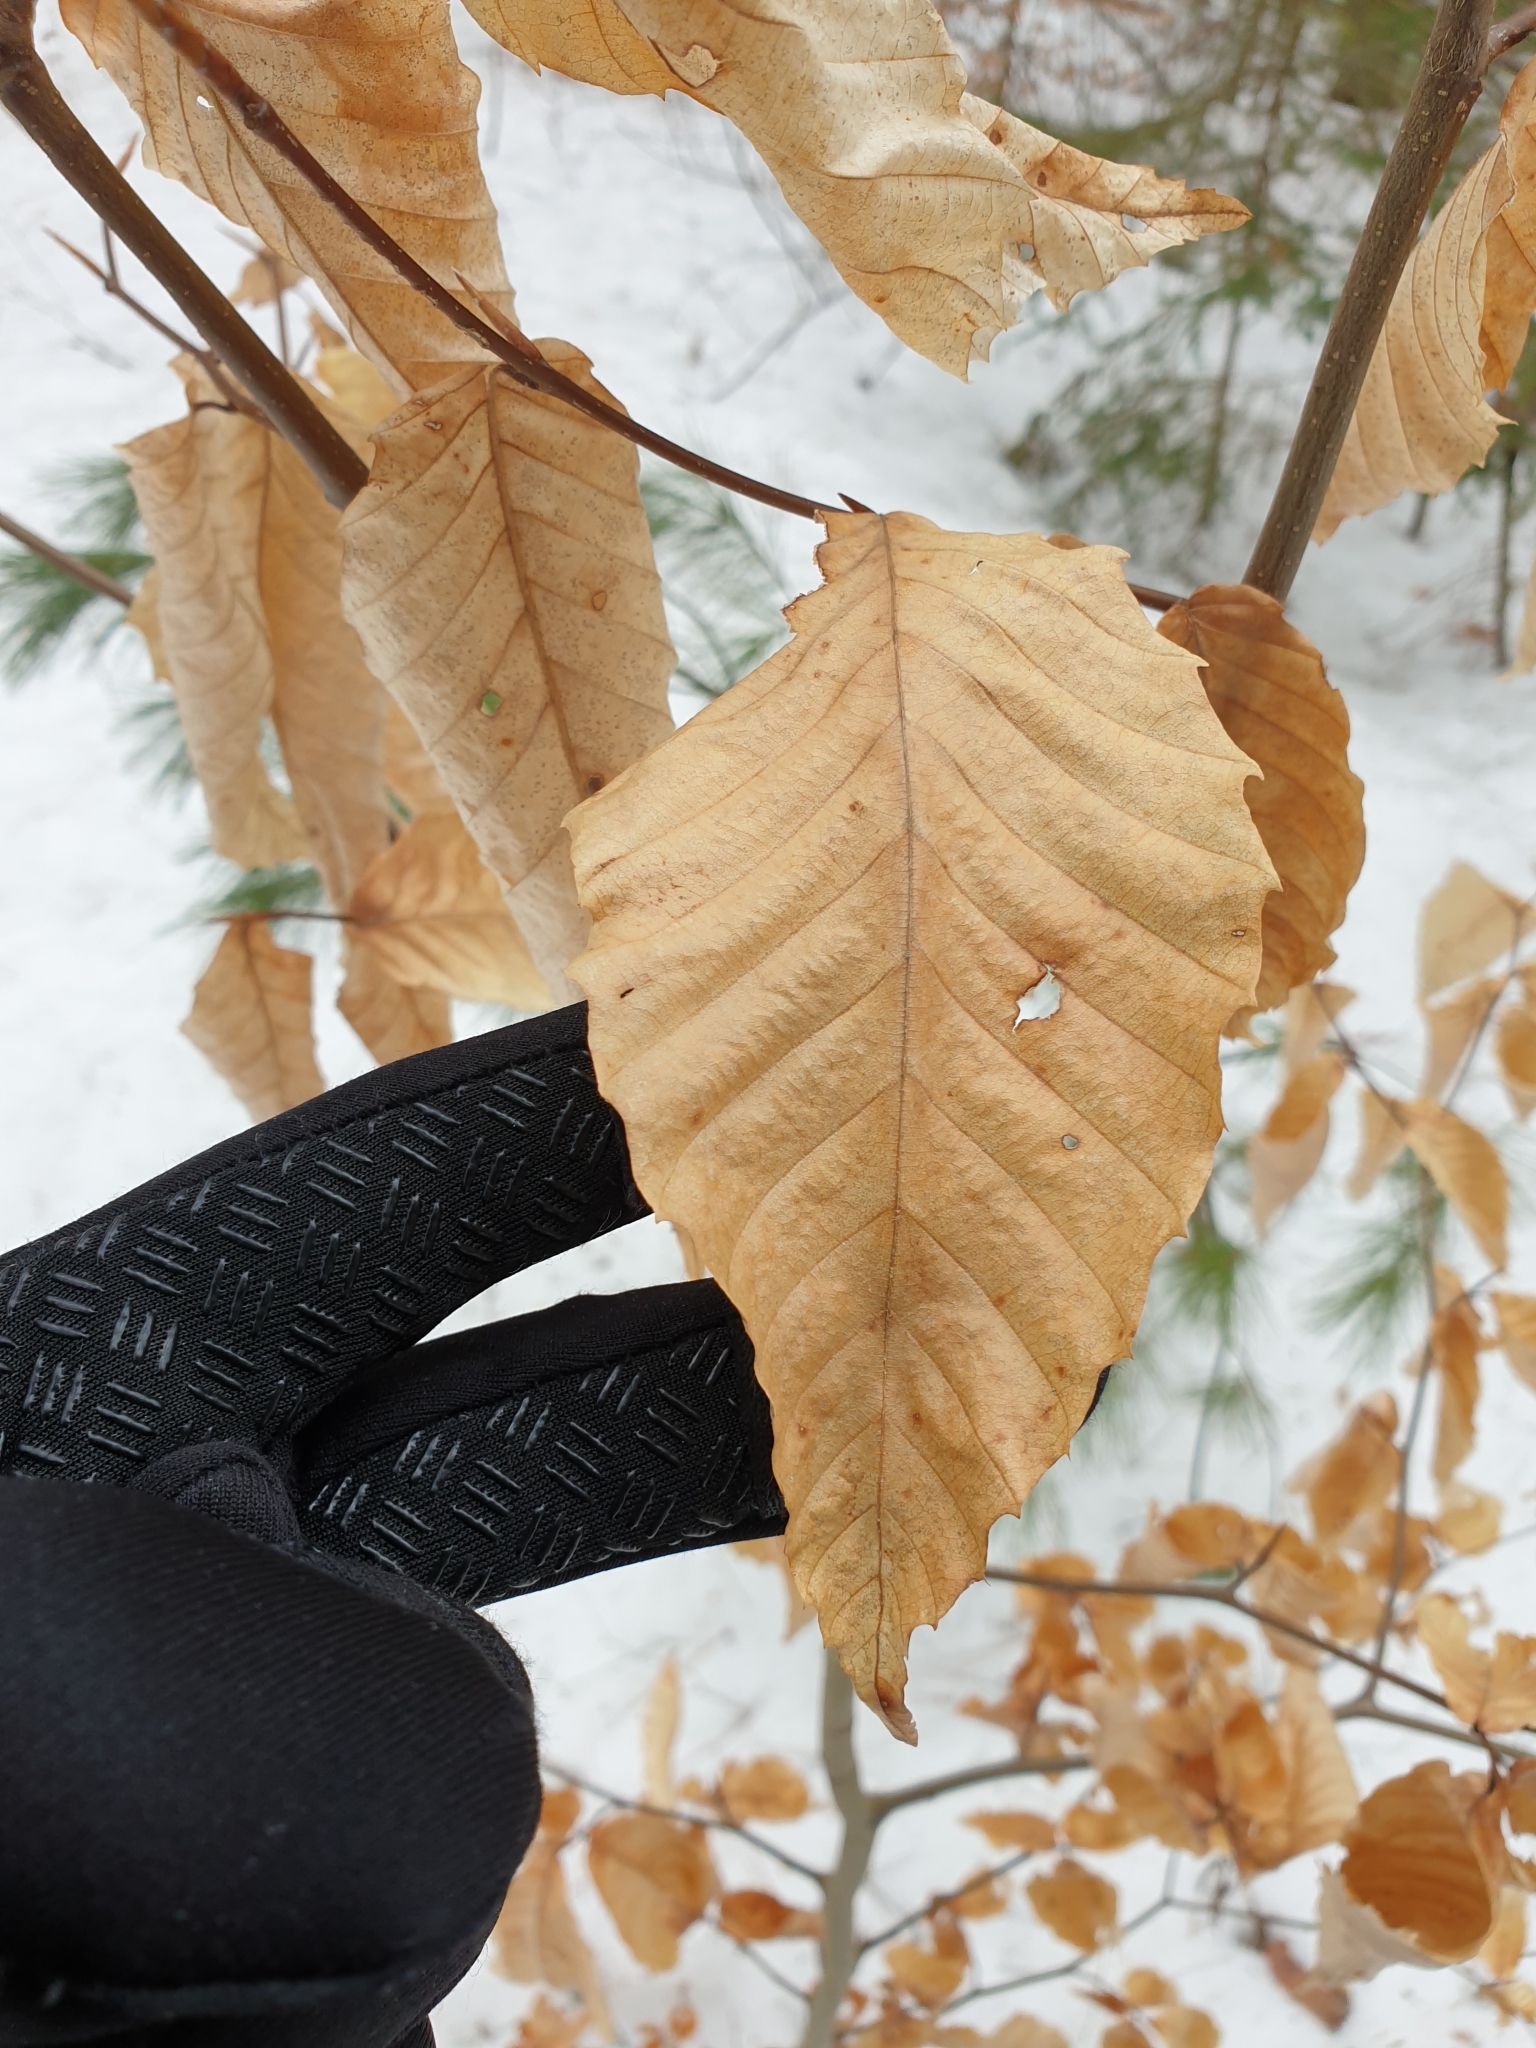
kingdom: Plantae
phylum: Tracheophyta
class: Magnoliopsida
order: Fagales
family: Fagaceae
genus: Fagus
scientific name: Fagus grandifolia
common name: American beech
